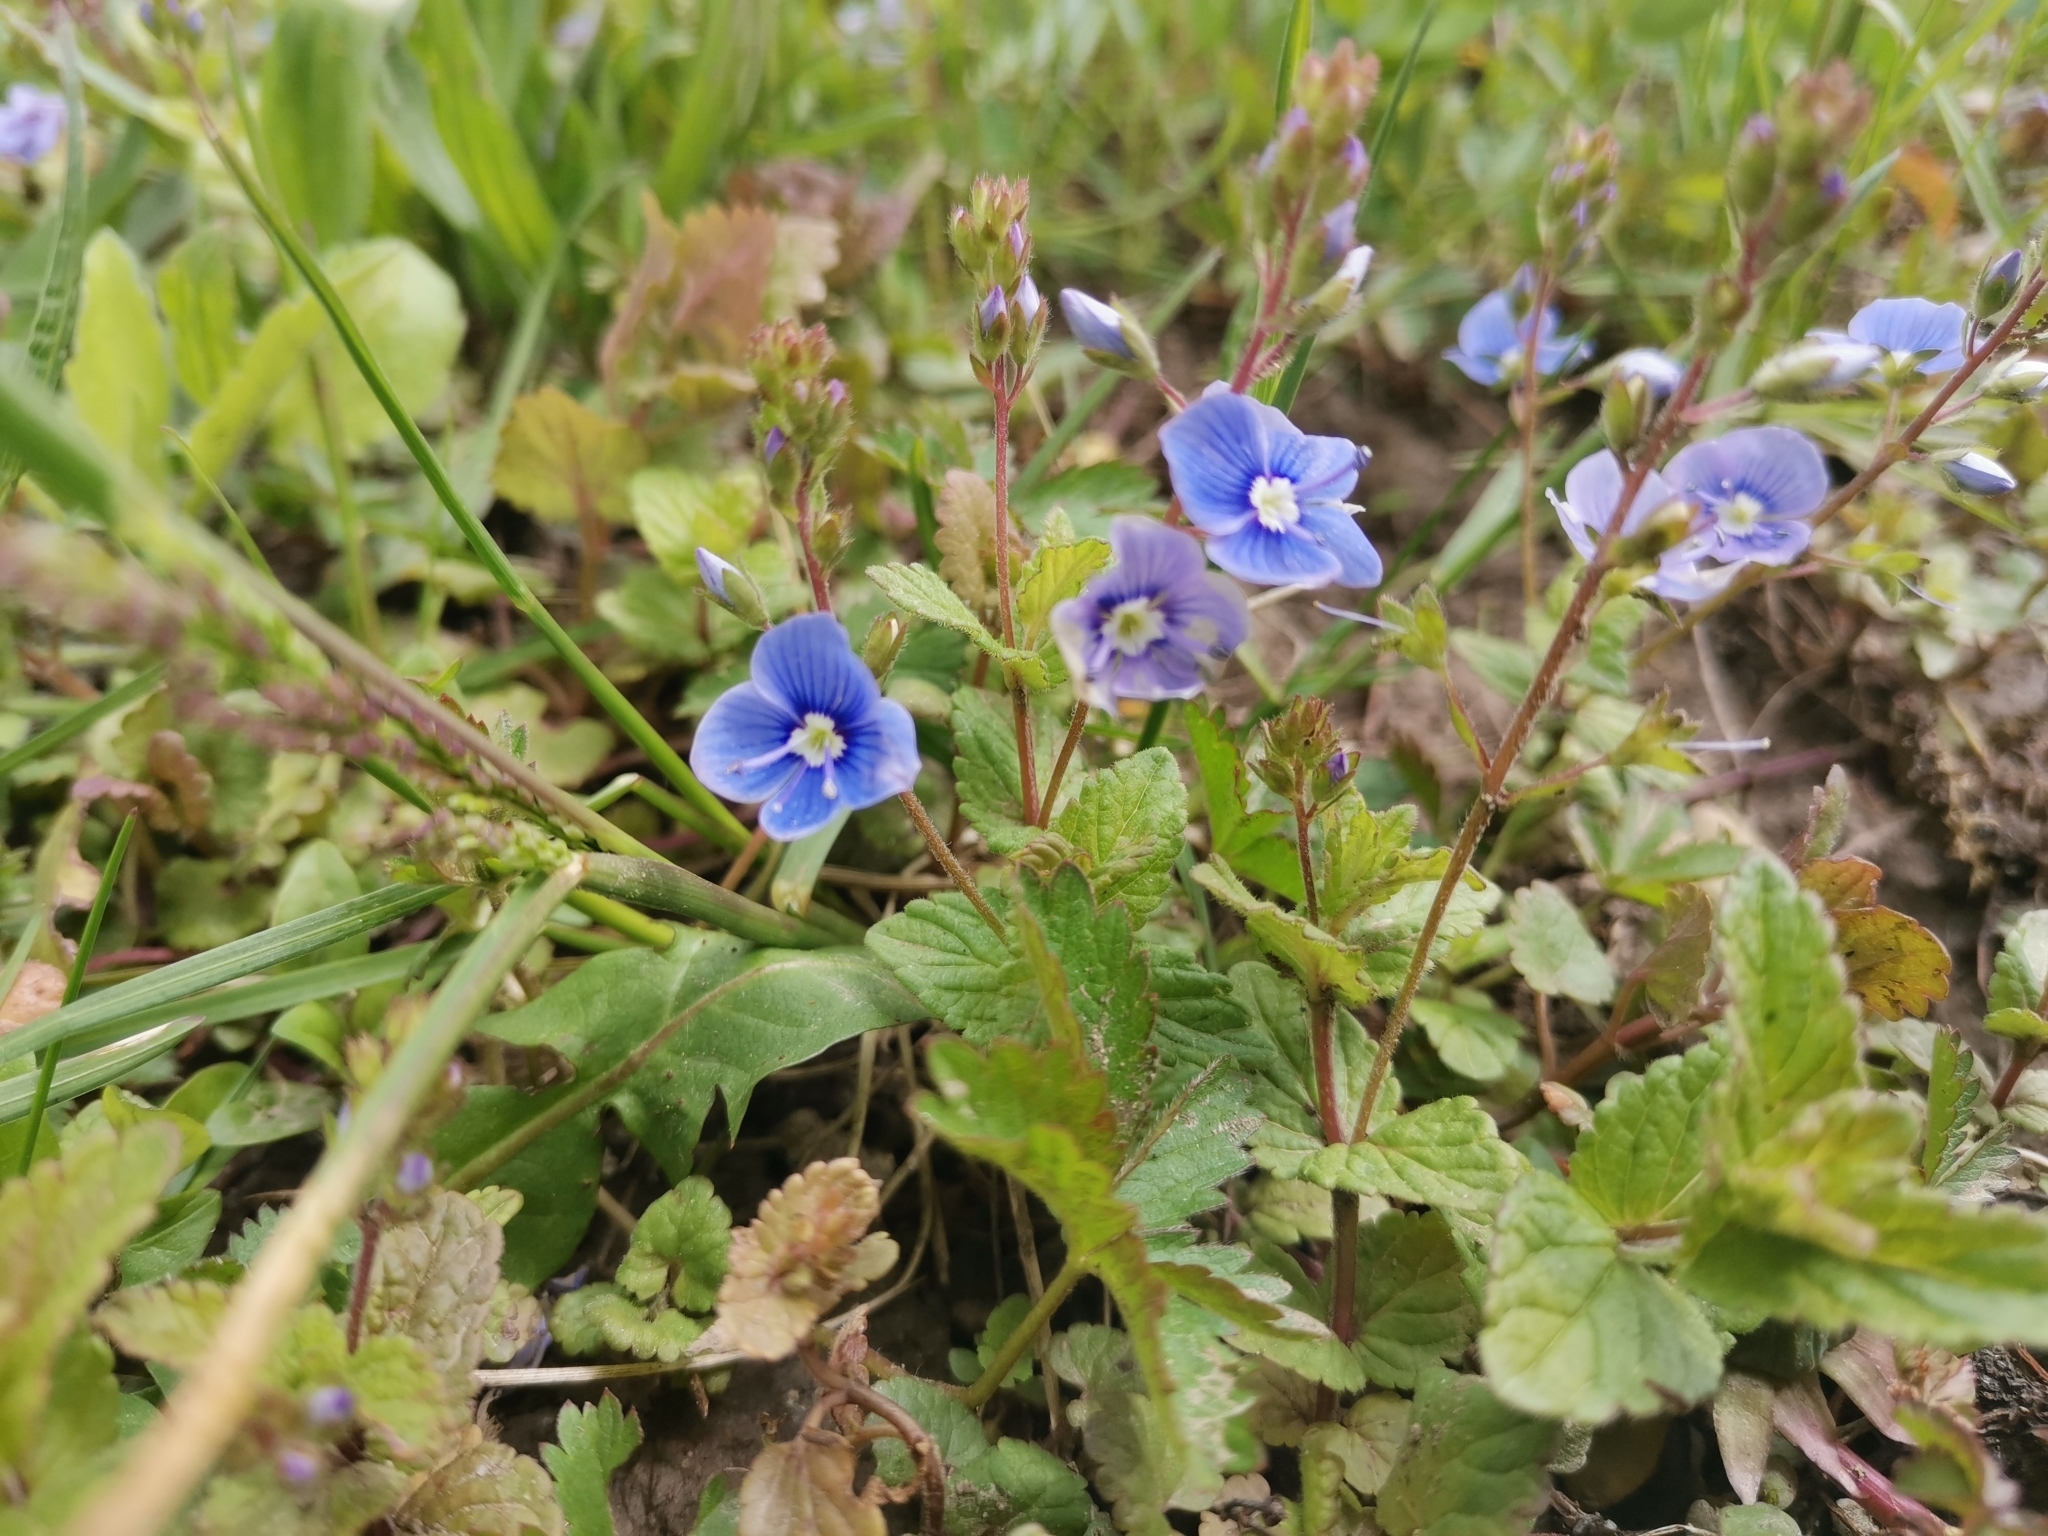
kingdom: Plantae
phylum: Tracheophyta
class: Magnoliopsida
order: Lamiales
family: Plantaginaceae
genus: Veronica
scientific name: Veronica chamaedrys
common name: Germander speedwell
